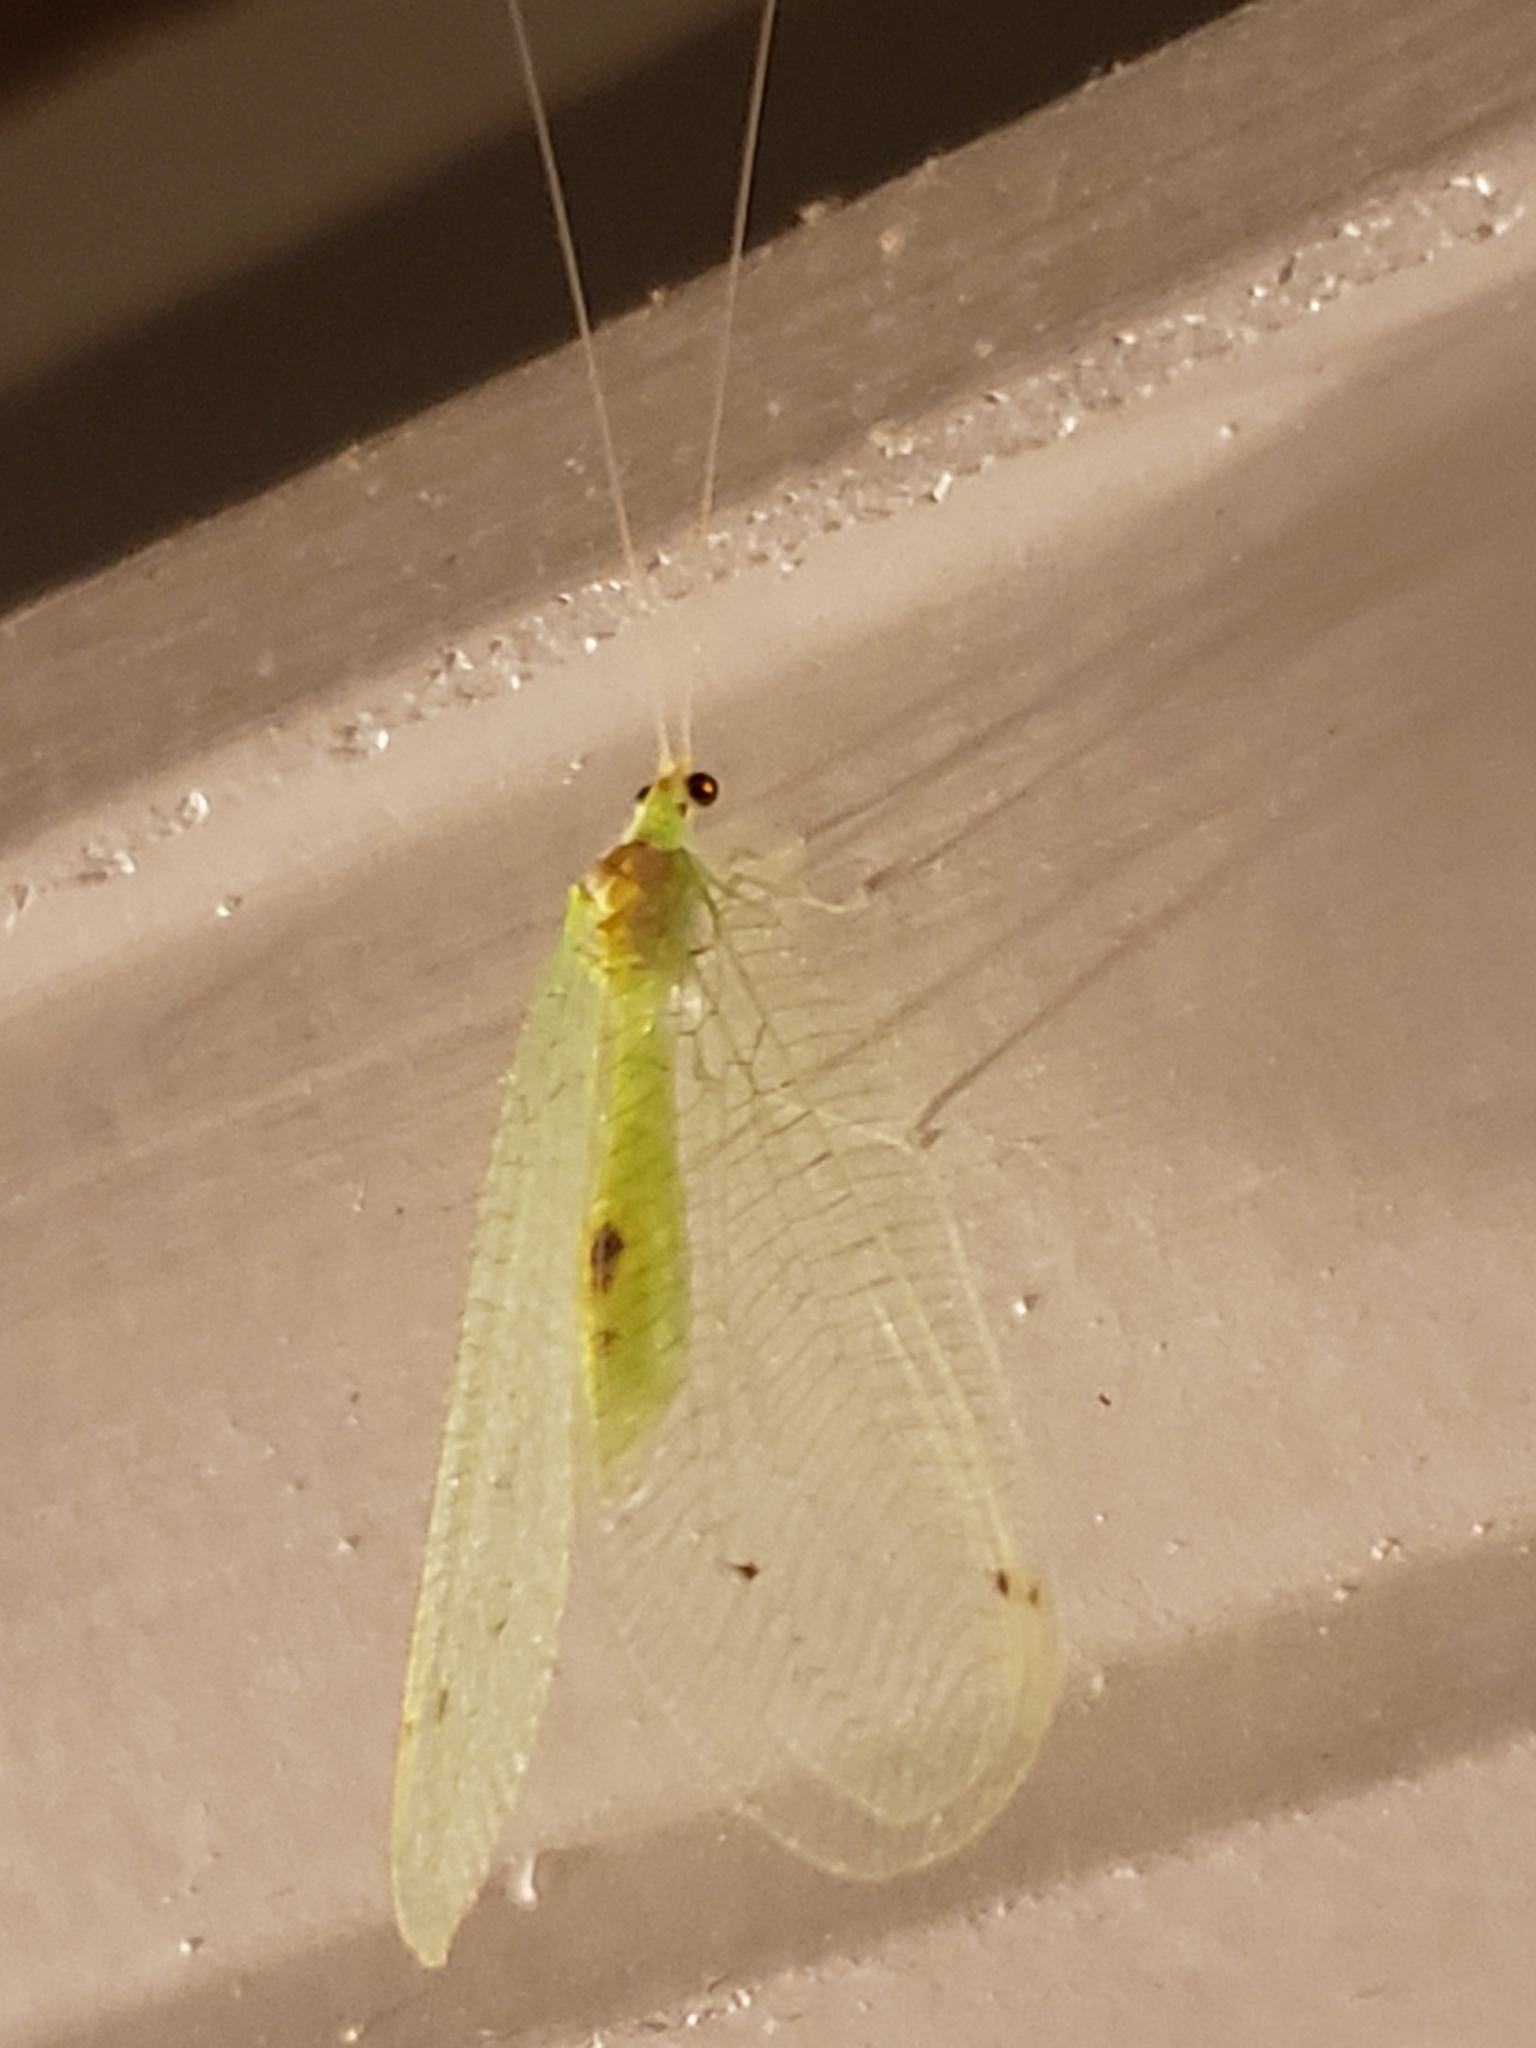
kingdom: Animalia
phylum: Arthropoda
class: Insecta
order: Neuroptera
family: Chrysopidae
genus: Leucochrysa
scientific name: Leucochrysa insularis
